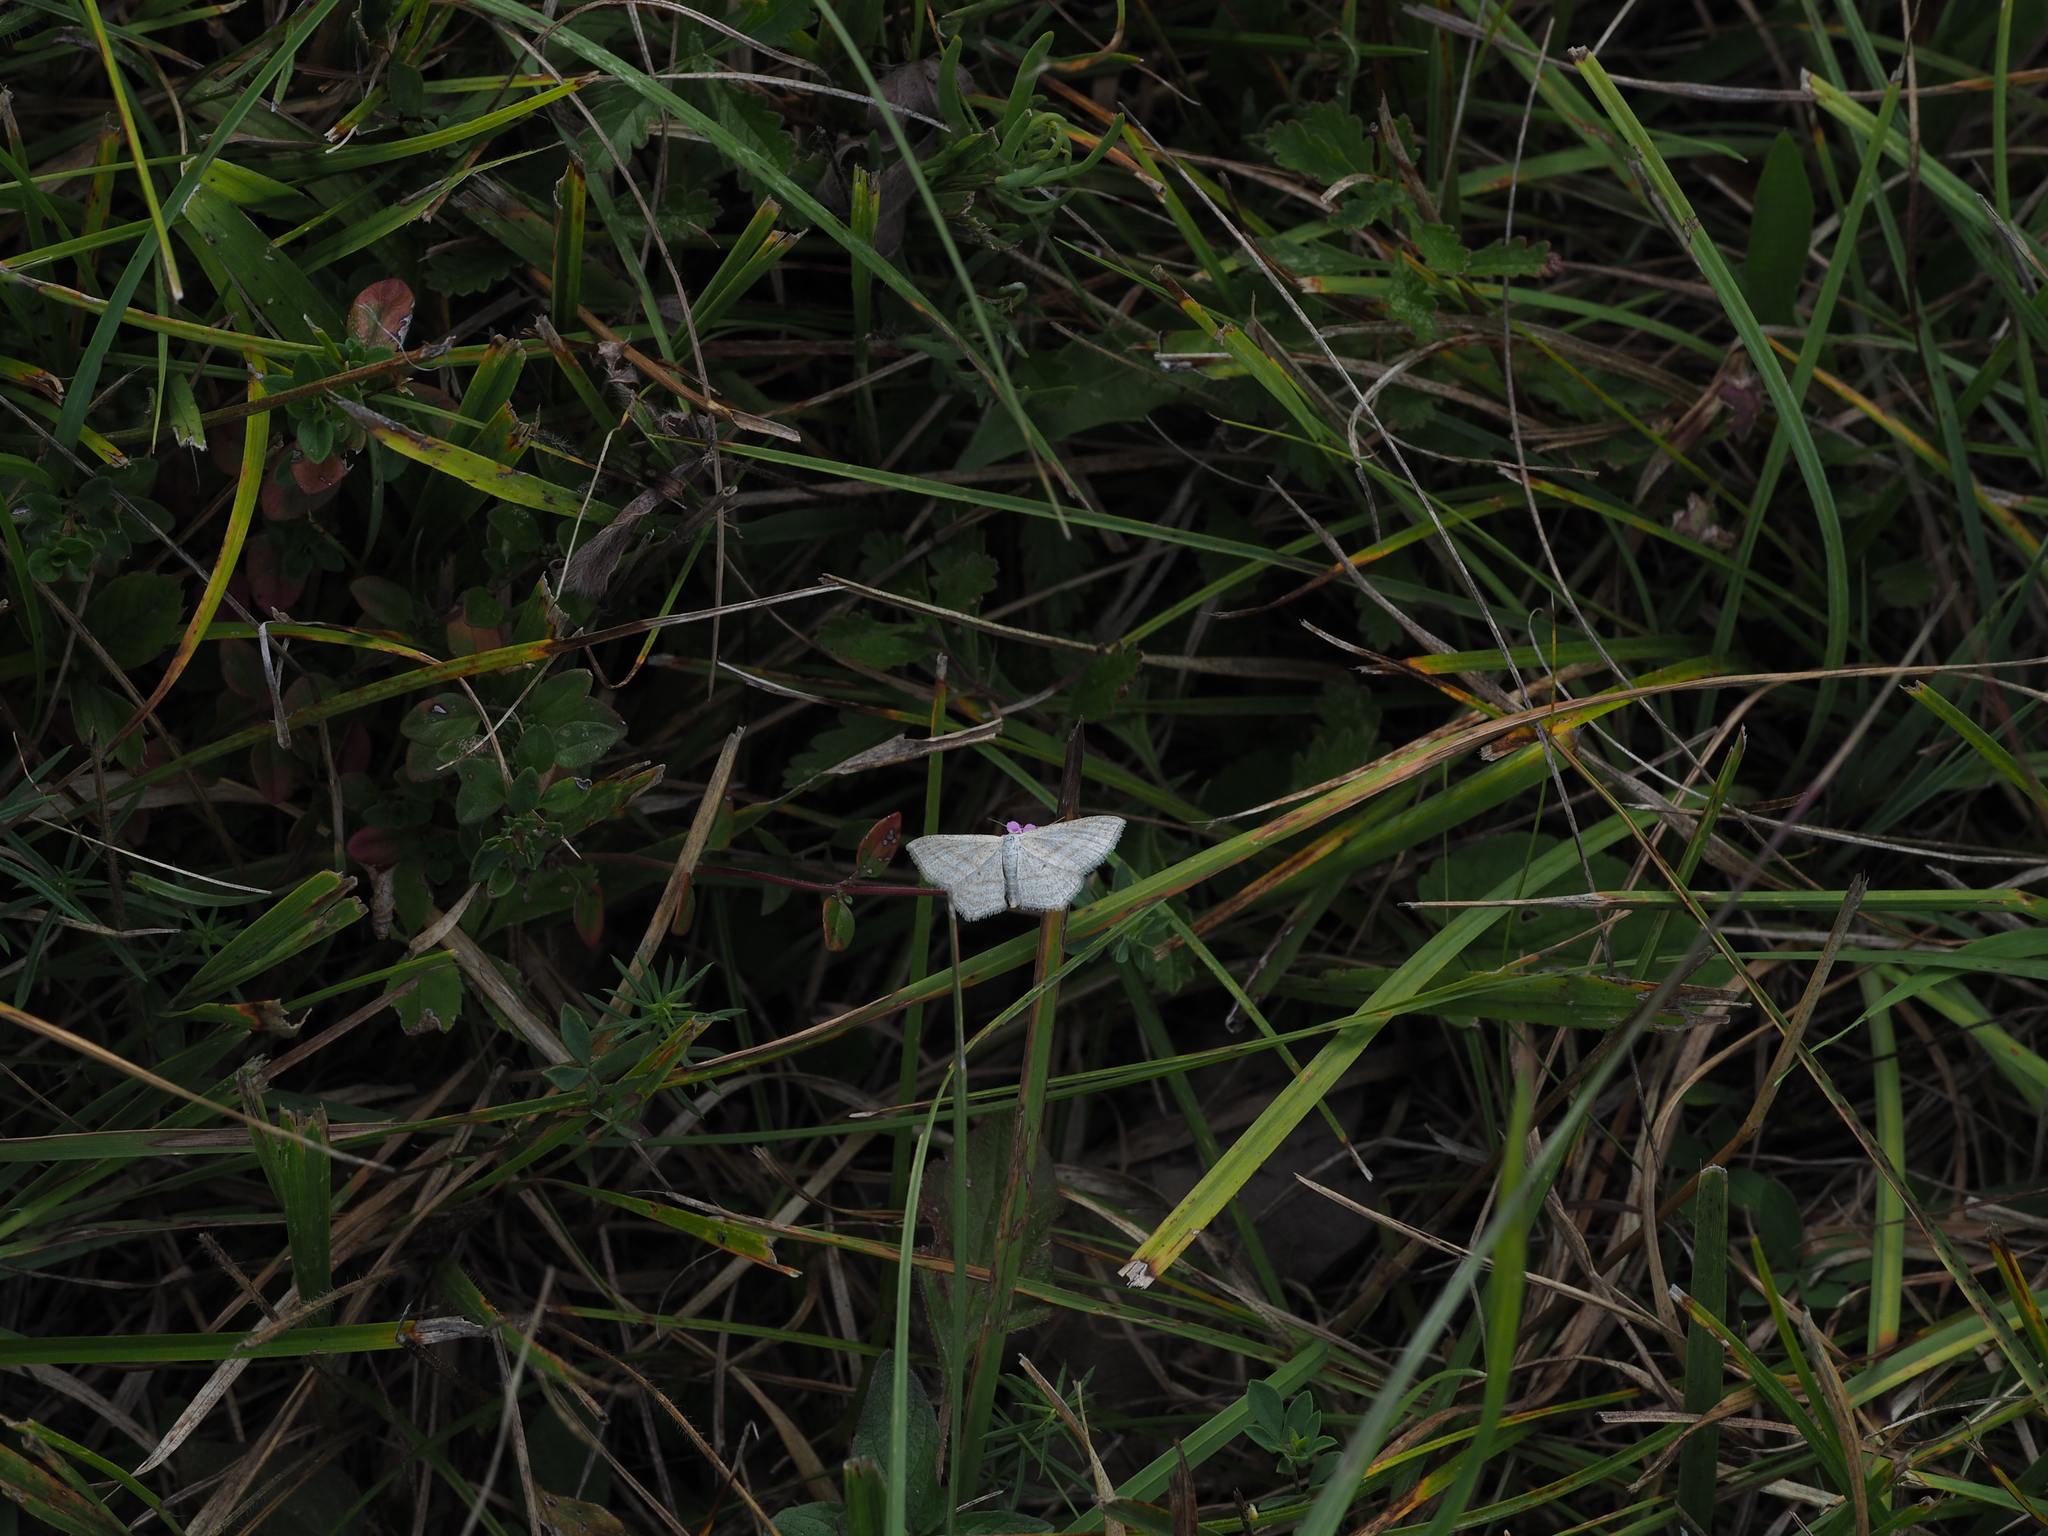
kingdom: Animalia
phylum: Arthropoda
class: Insecta
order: Lepidoptera
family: Geometridae
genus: Scopula
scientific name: Scopula virgulata
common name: Streaked wave
